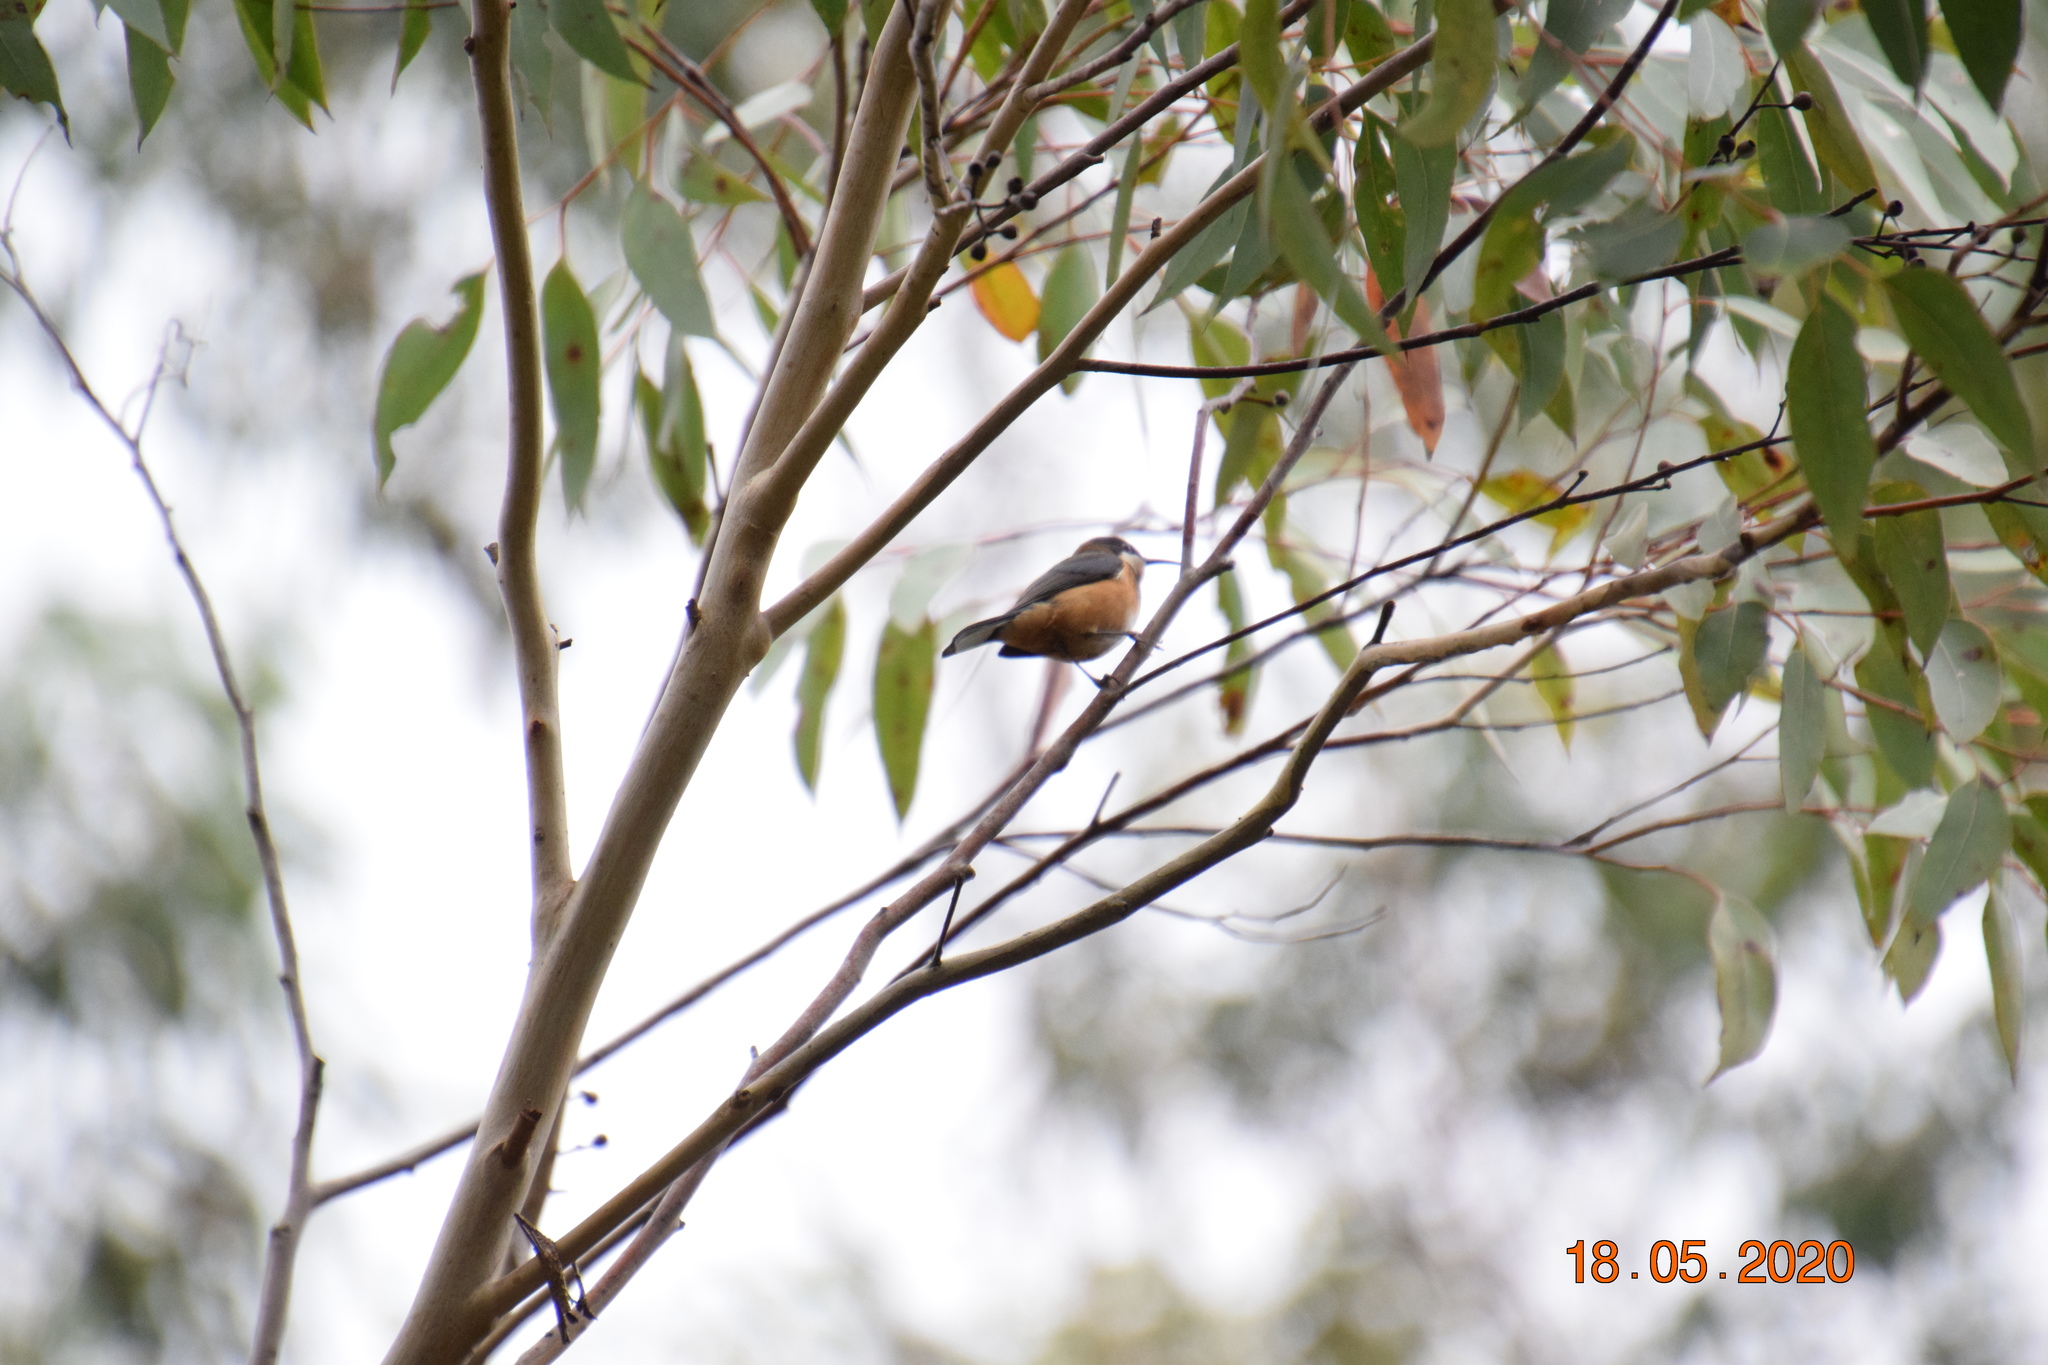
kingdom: Animalia
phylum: Chordata
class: Aves
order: Passeriformes
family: Meliphagidae
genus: Acanthorhynchus
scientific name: Acanthorhynchus tenuirostris
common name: Eastern spinebill
